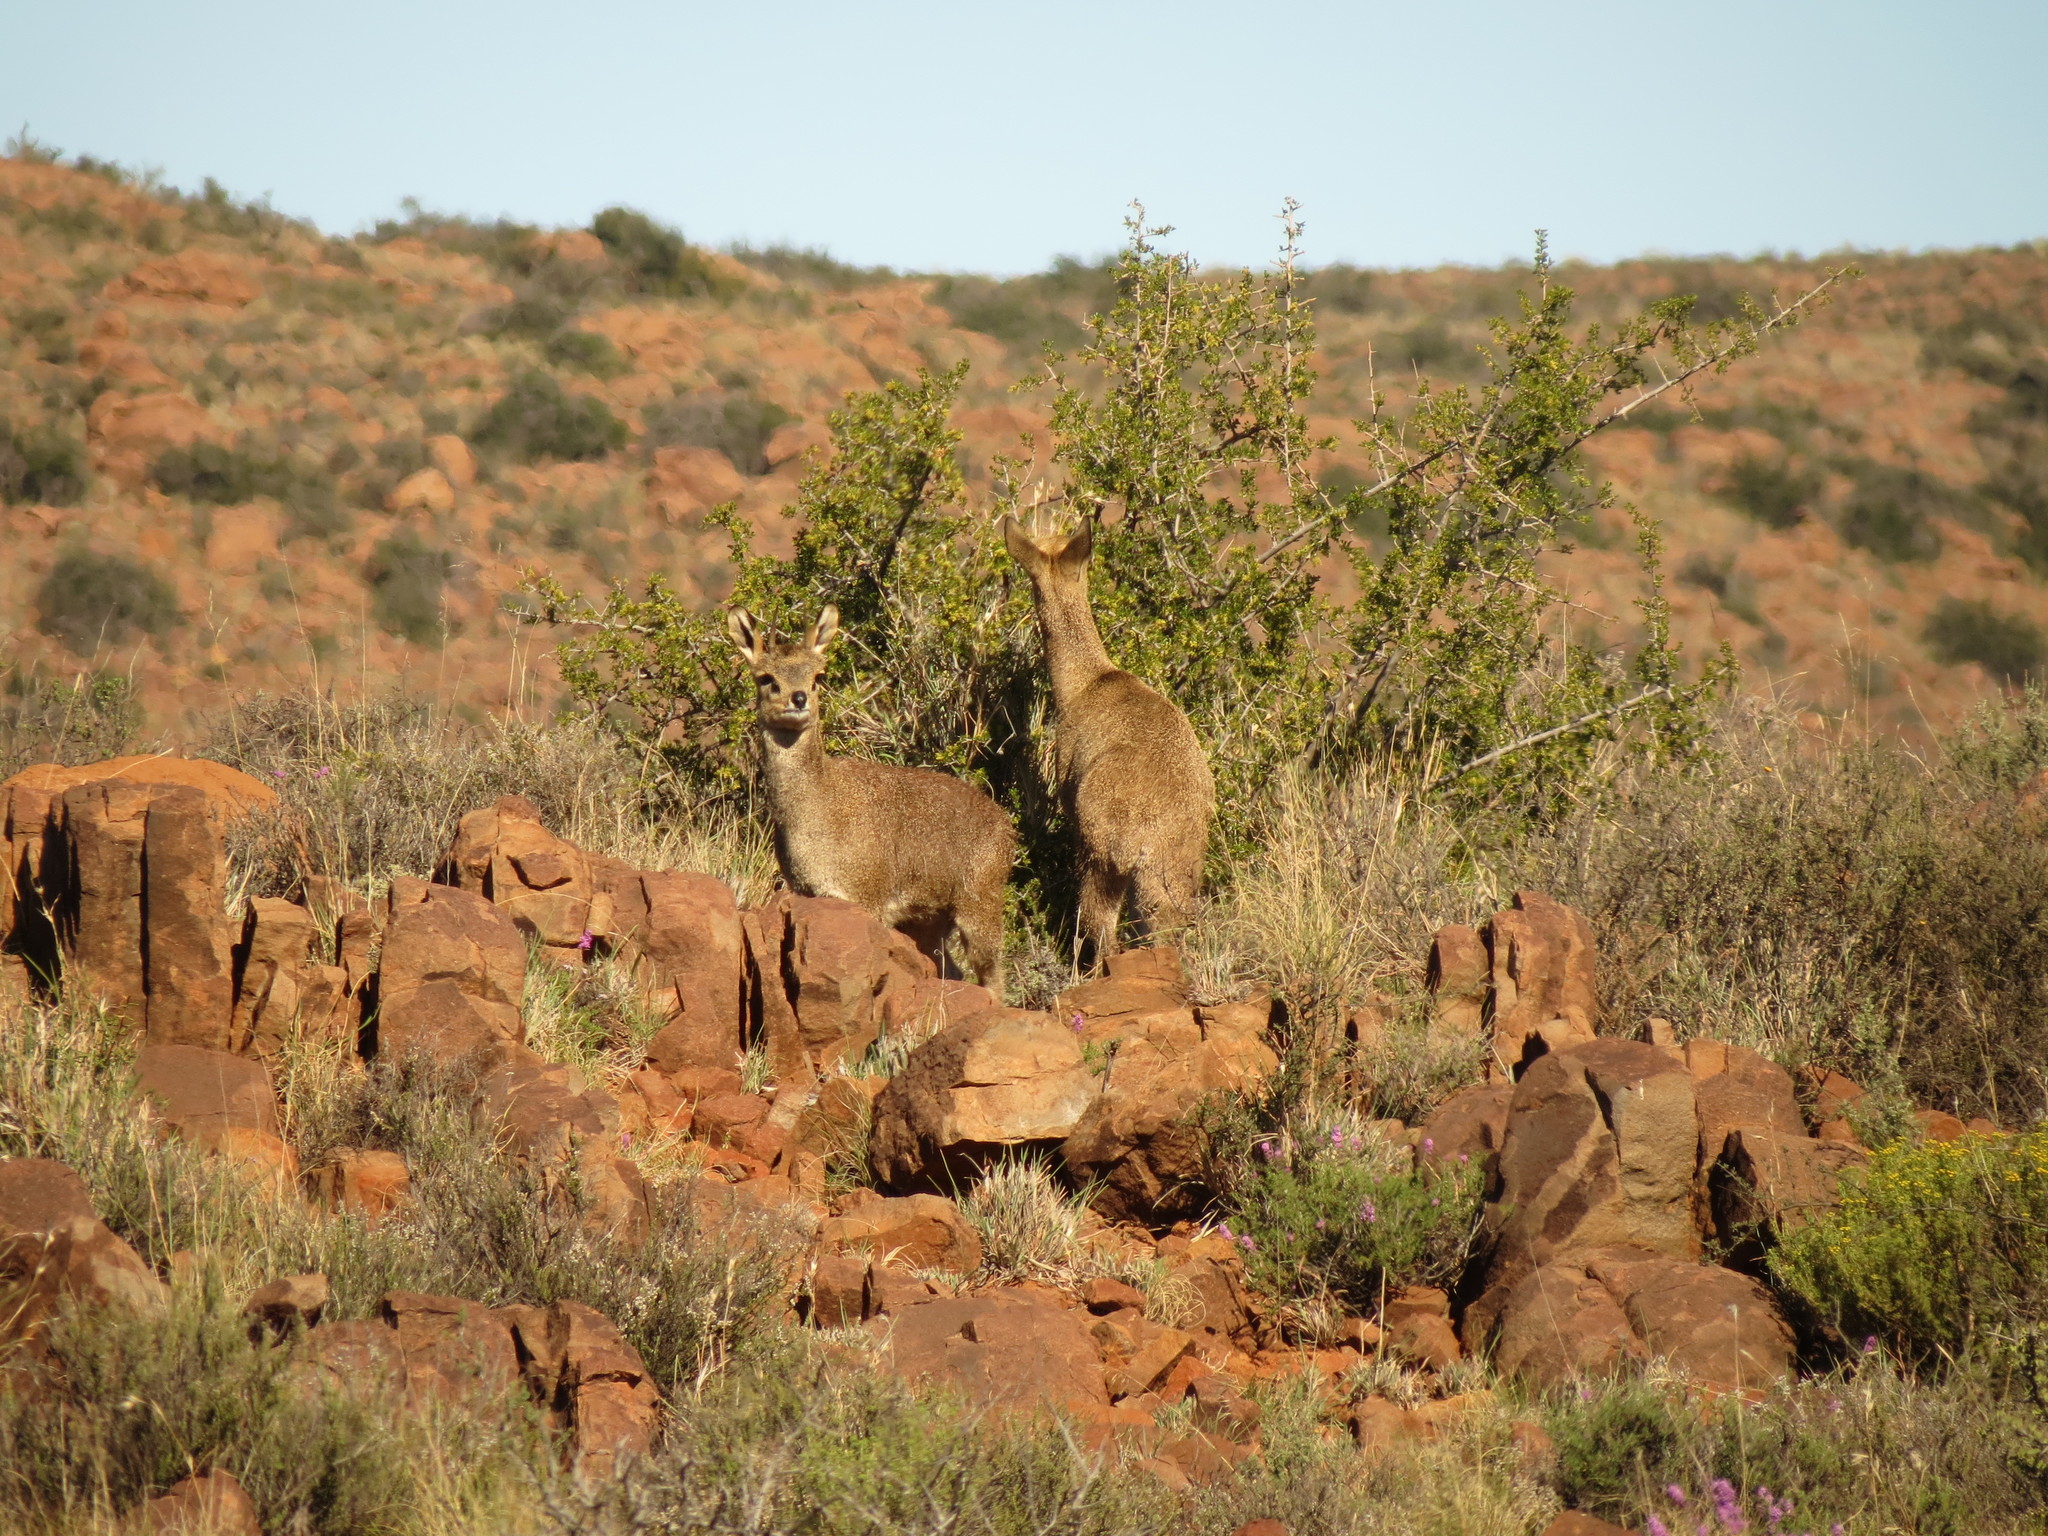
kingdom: Animalia
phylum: Chordata
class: Mammalia
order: Artiodactyla
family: Bovidae
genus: Oreotragus
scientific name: Oreotragus oreotragus
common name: Klipspringer
